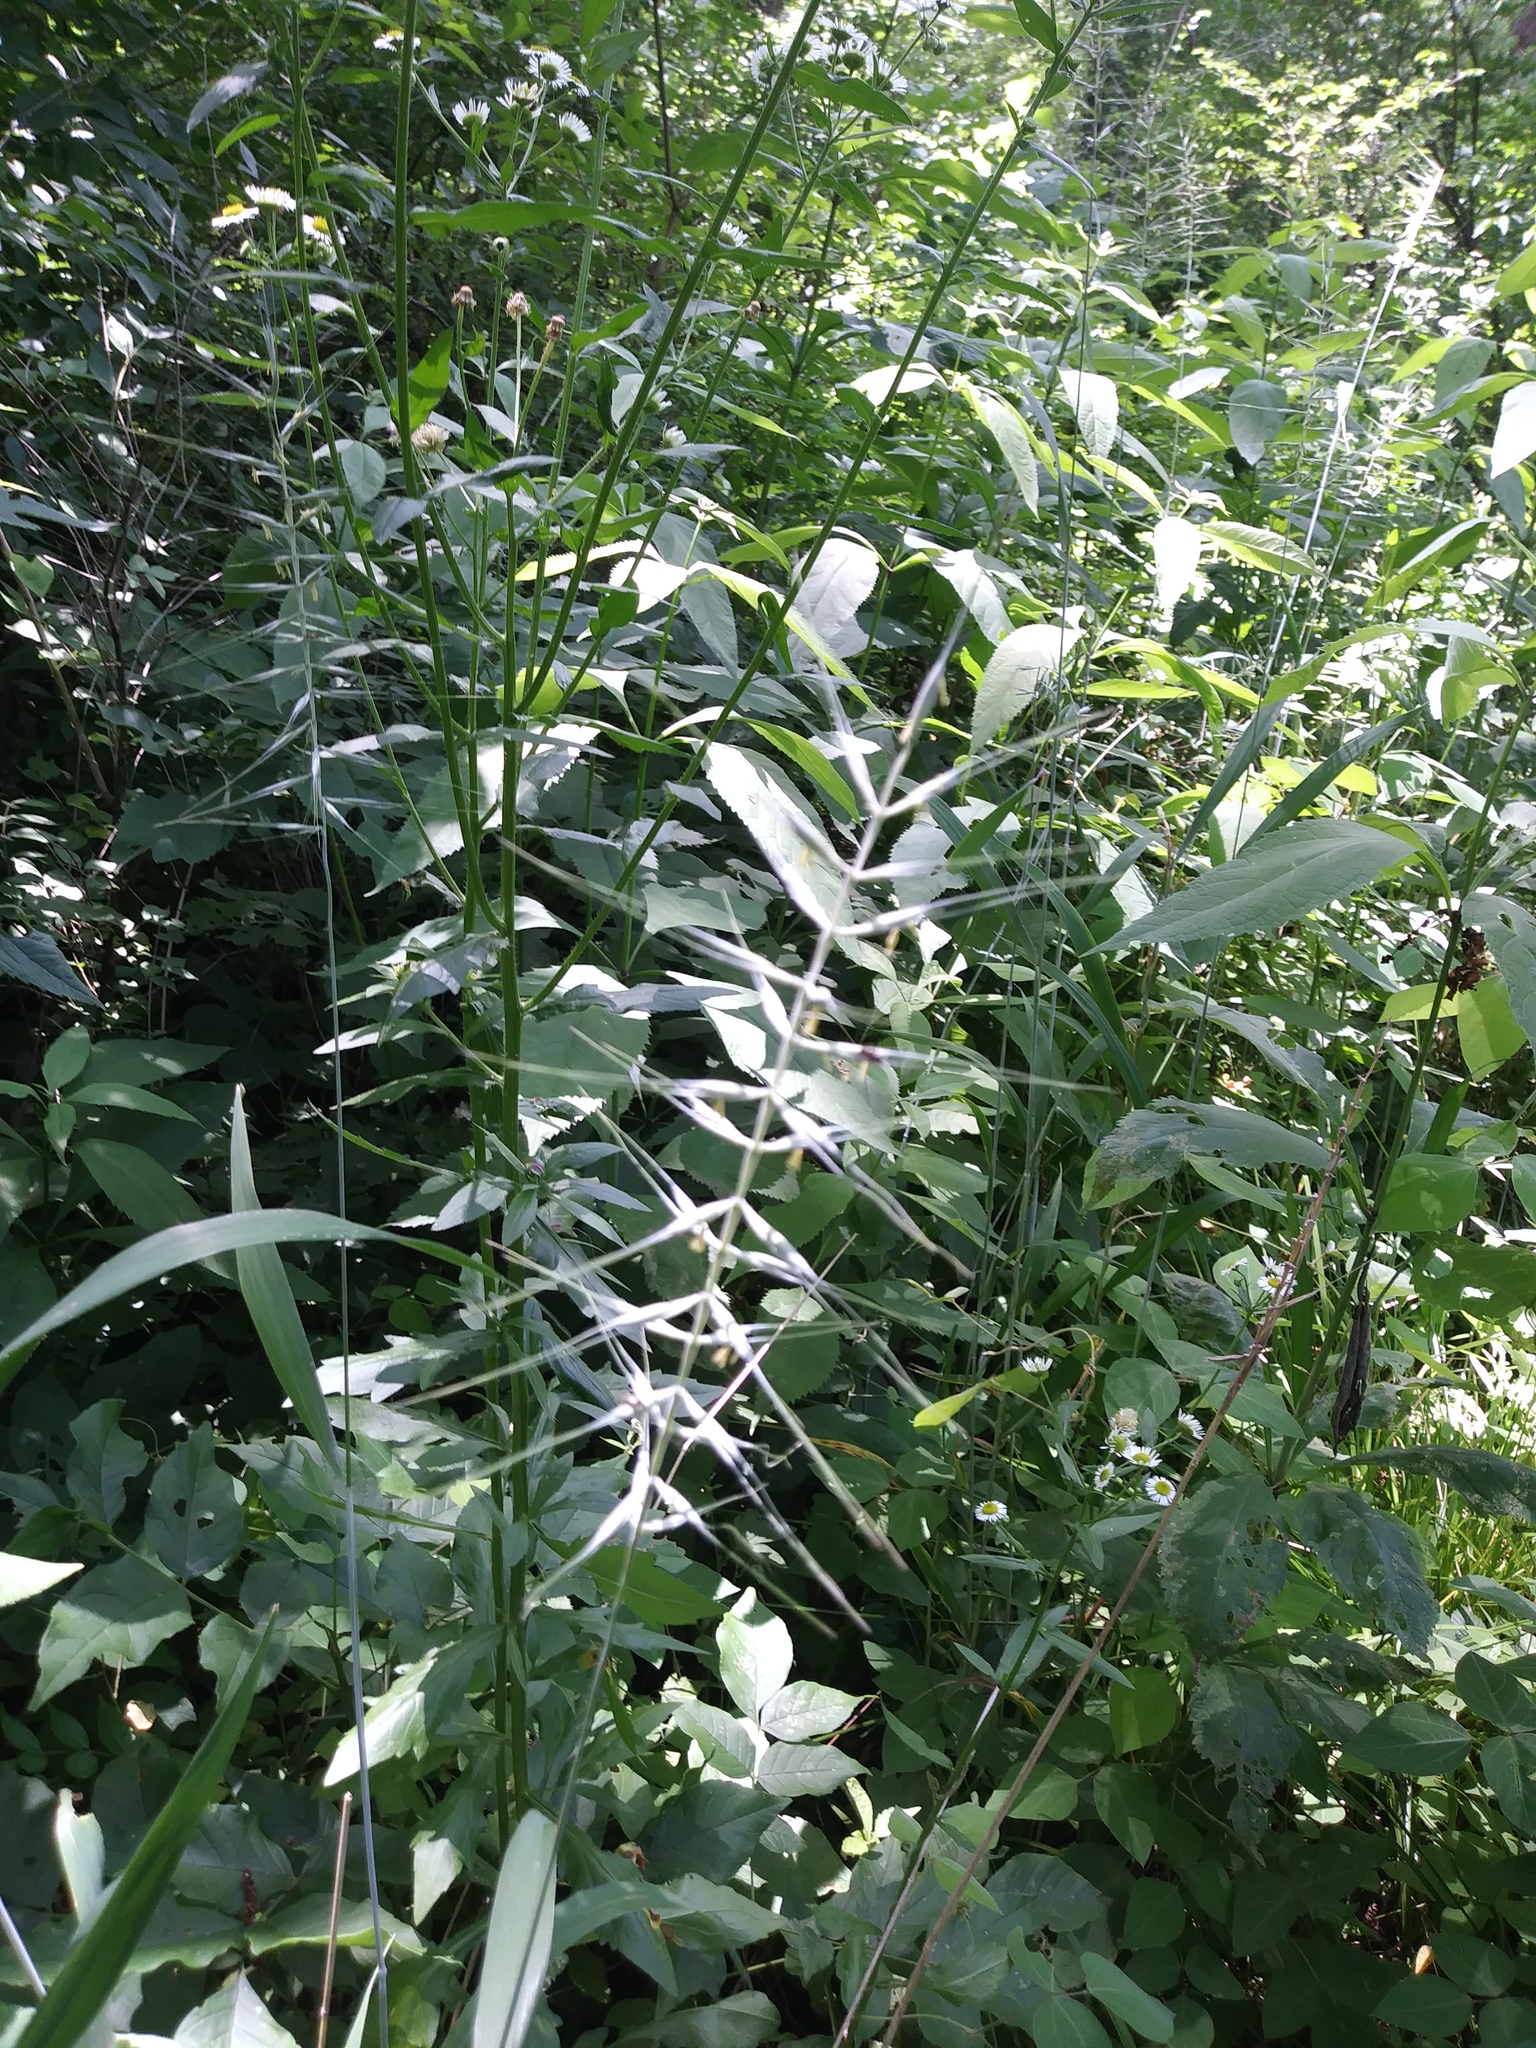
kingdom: Plantae
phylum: Tracheophyta
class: Liliopsida
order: Poales
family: Poaceae
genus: Elymus
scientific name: Elymus hystrix
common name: Bottlebrush grass
